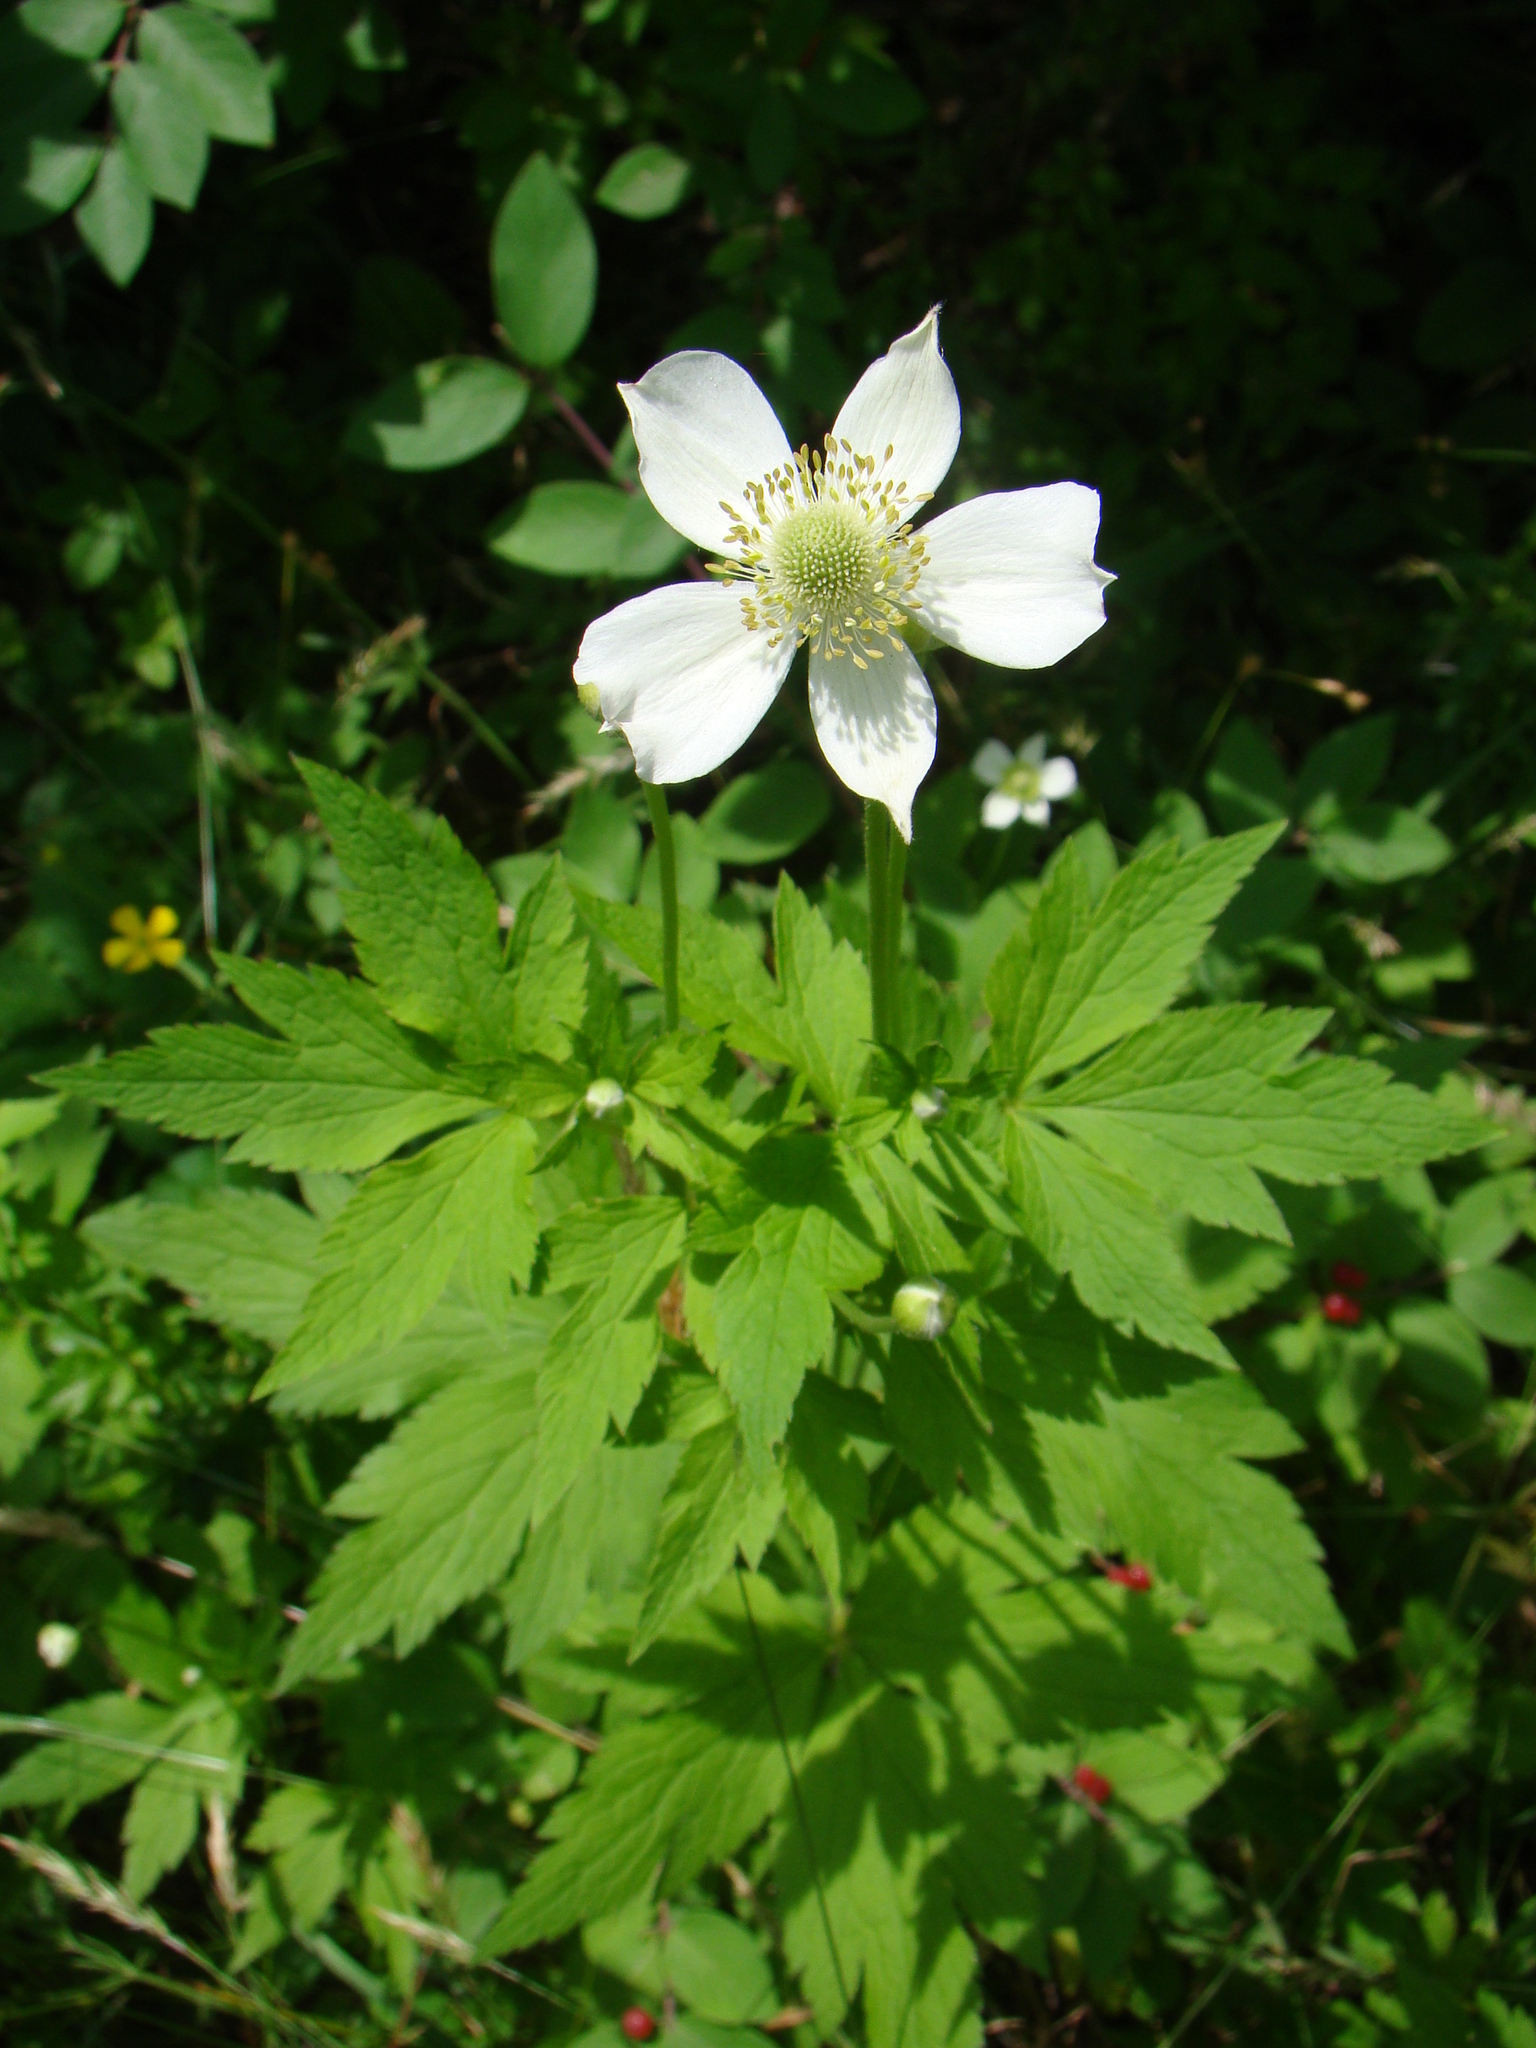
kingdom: Plantae
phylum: Tracheophyta
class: Magnoliopsida
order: Ranunculales
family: Ranunculaceae
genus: Anemone
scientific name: Anemone virginiana
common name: Tall anemone
